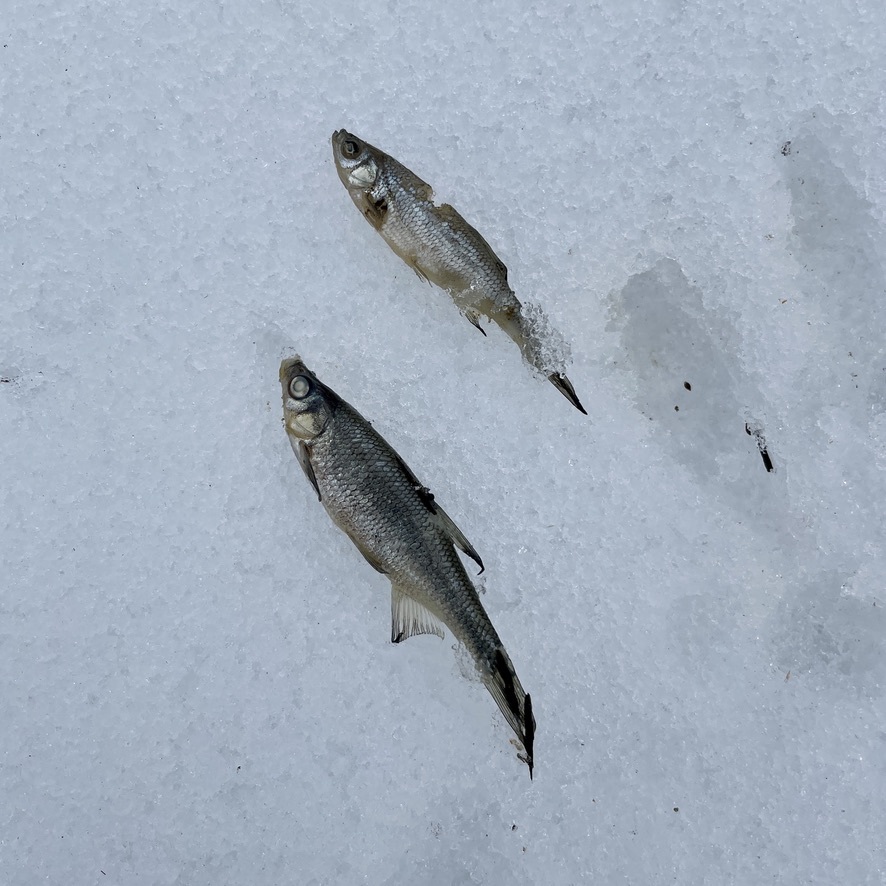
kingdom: Animalia
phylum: Chordata
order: Cypriniformes
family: Cyprinidae
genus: Notemigonus
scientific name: Notemigonus crysoleucas
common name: Golden shiner
